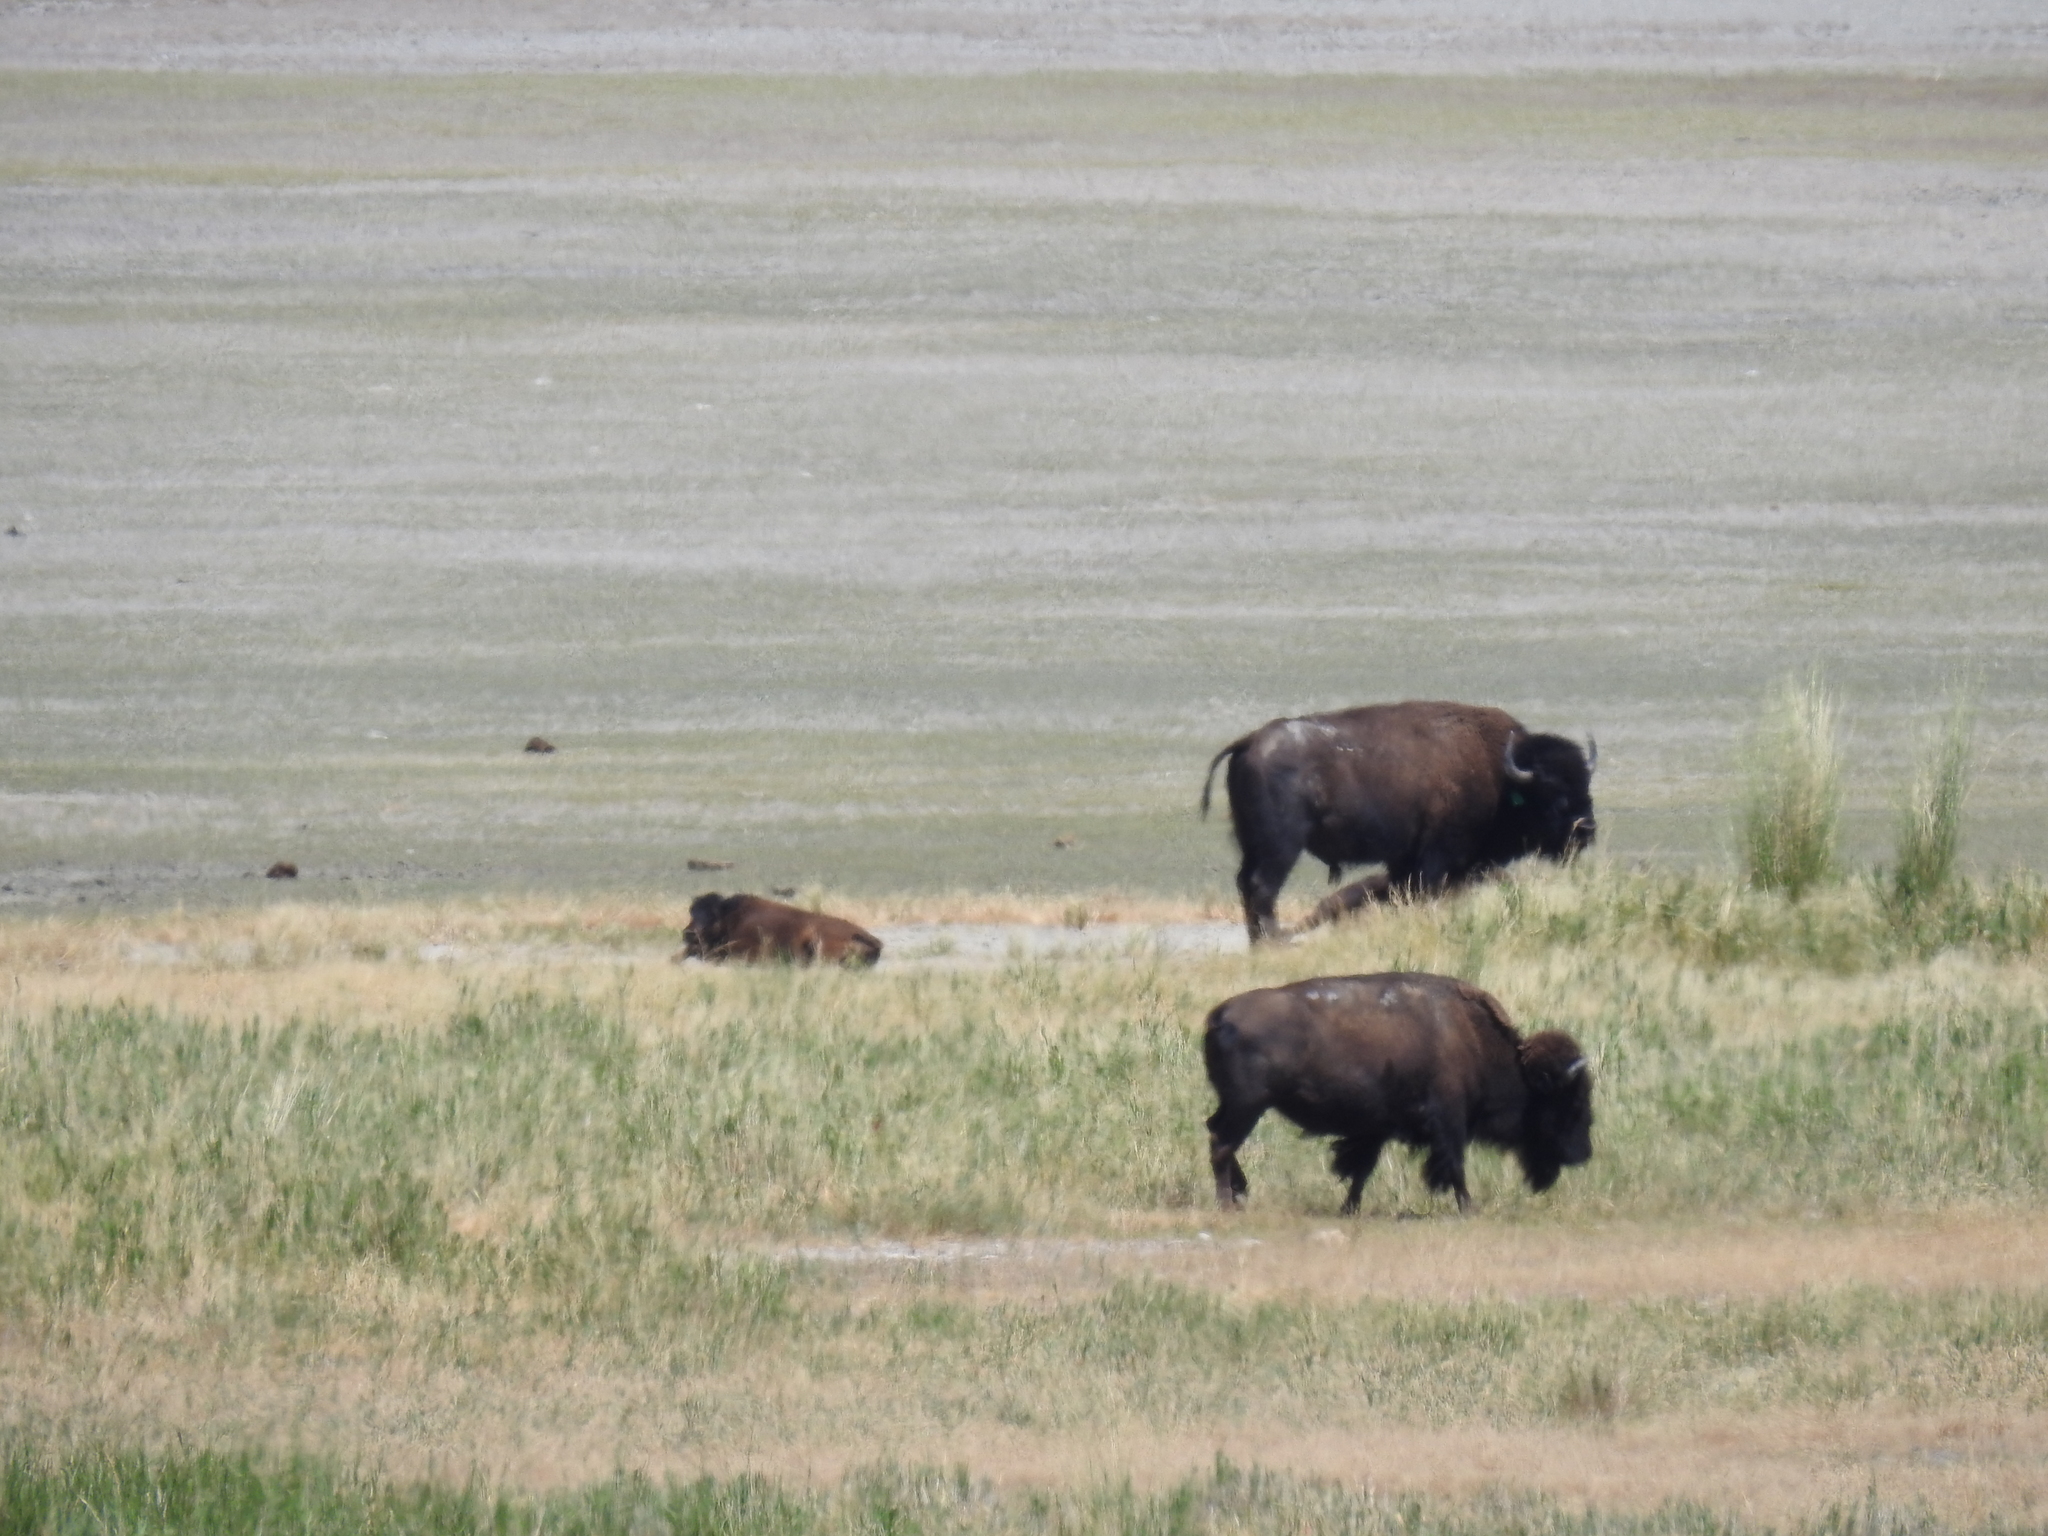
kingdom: Animalia
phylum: Chordata
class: Mammalia
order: Artiodactyla
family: Bovidae
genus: Bison
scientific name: Bison bison
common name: American bison
